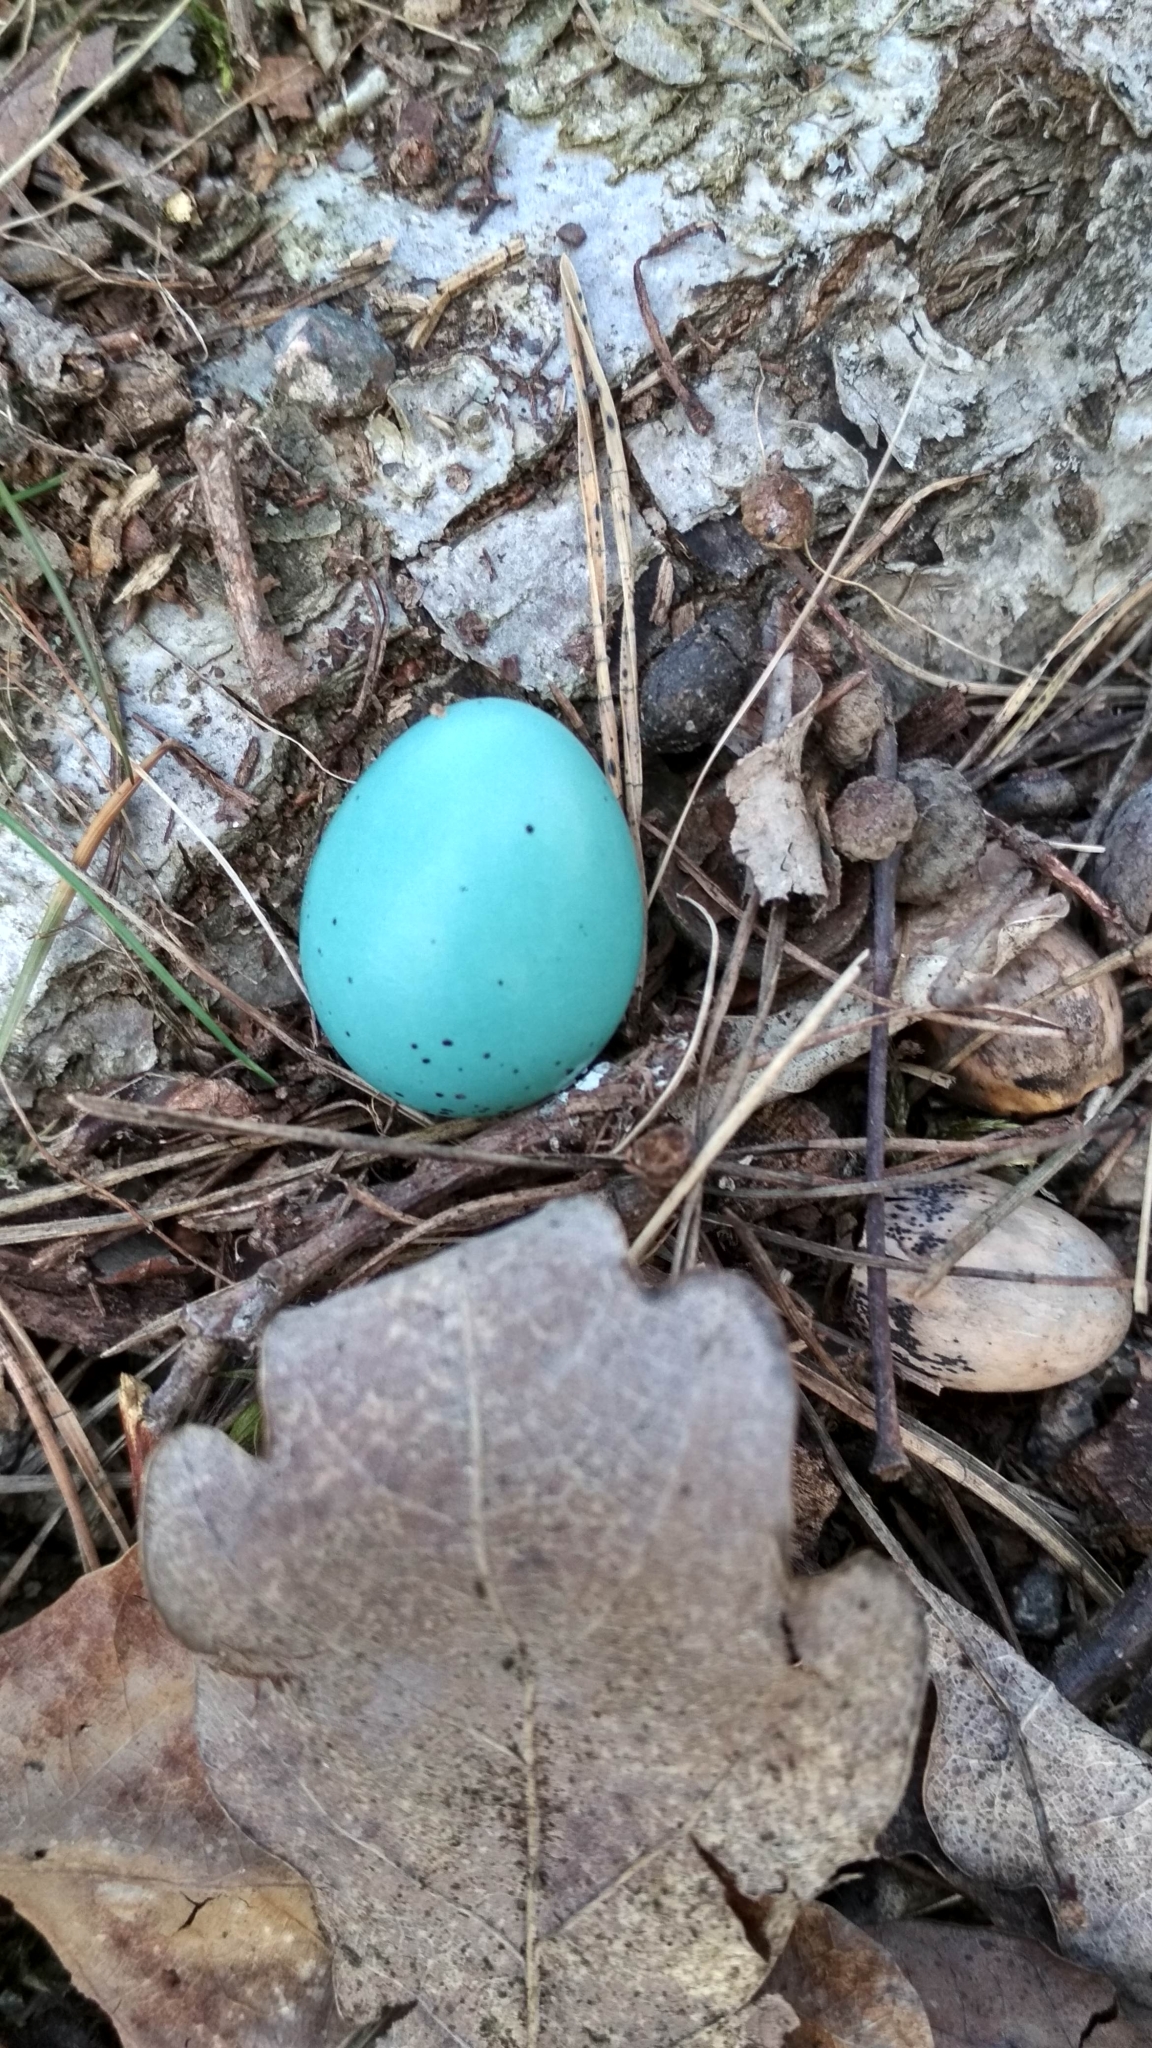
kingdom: Animalia
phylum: Chordata
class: Aves
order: Passeriformes
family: Turdidae
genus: Turdus
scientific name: Turdus philomelos
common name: Song thrush
